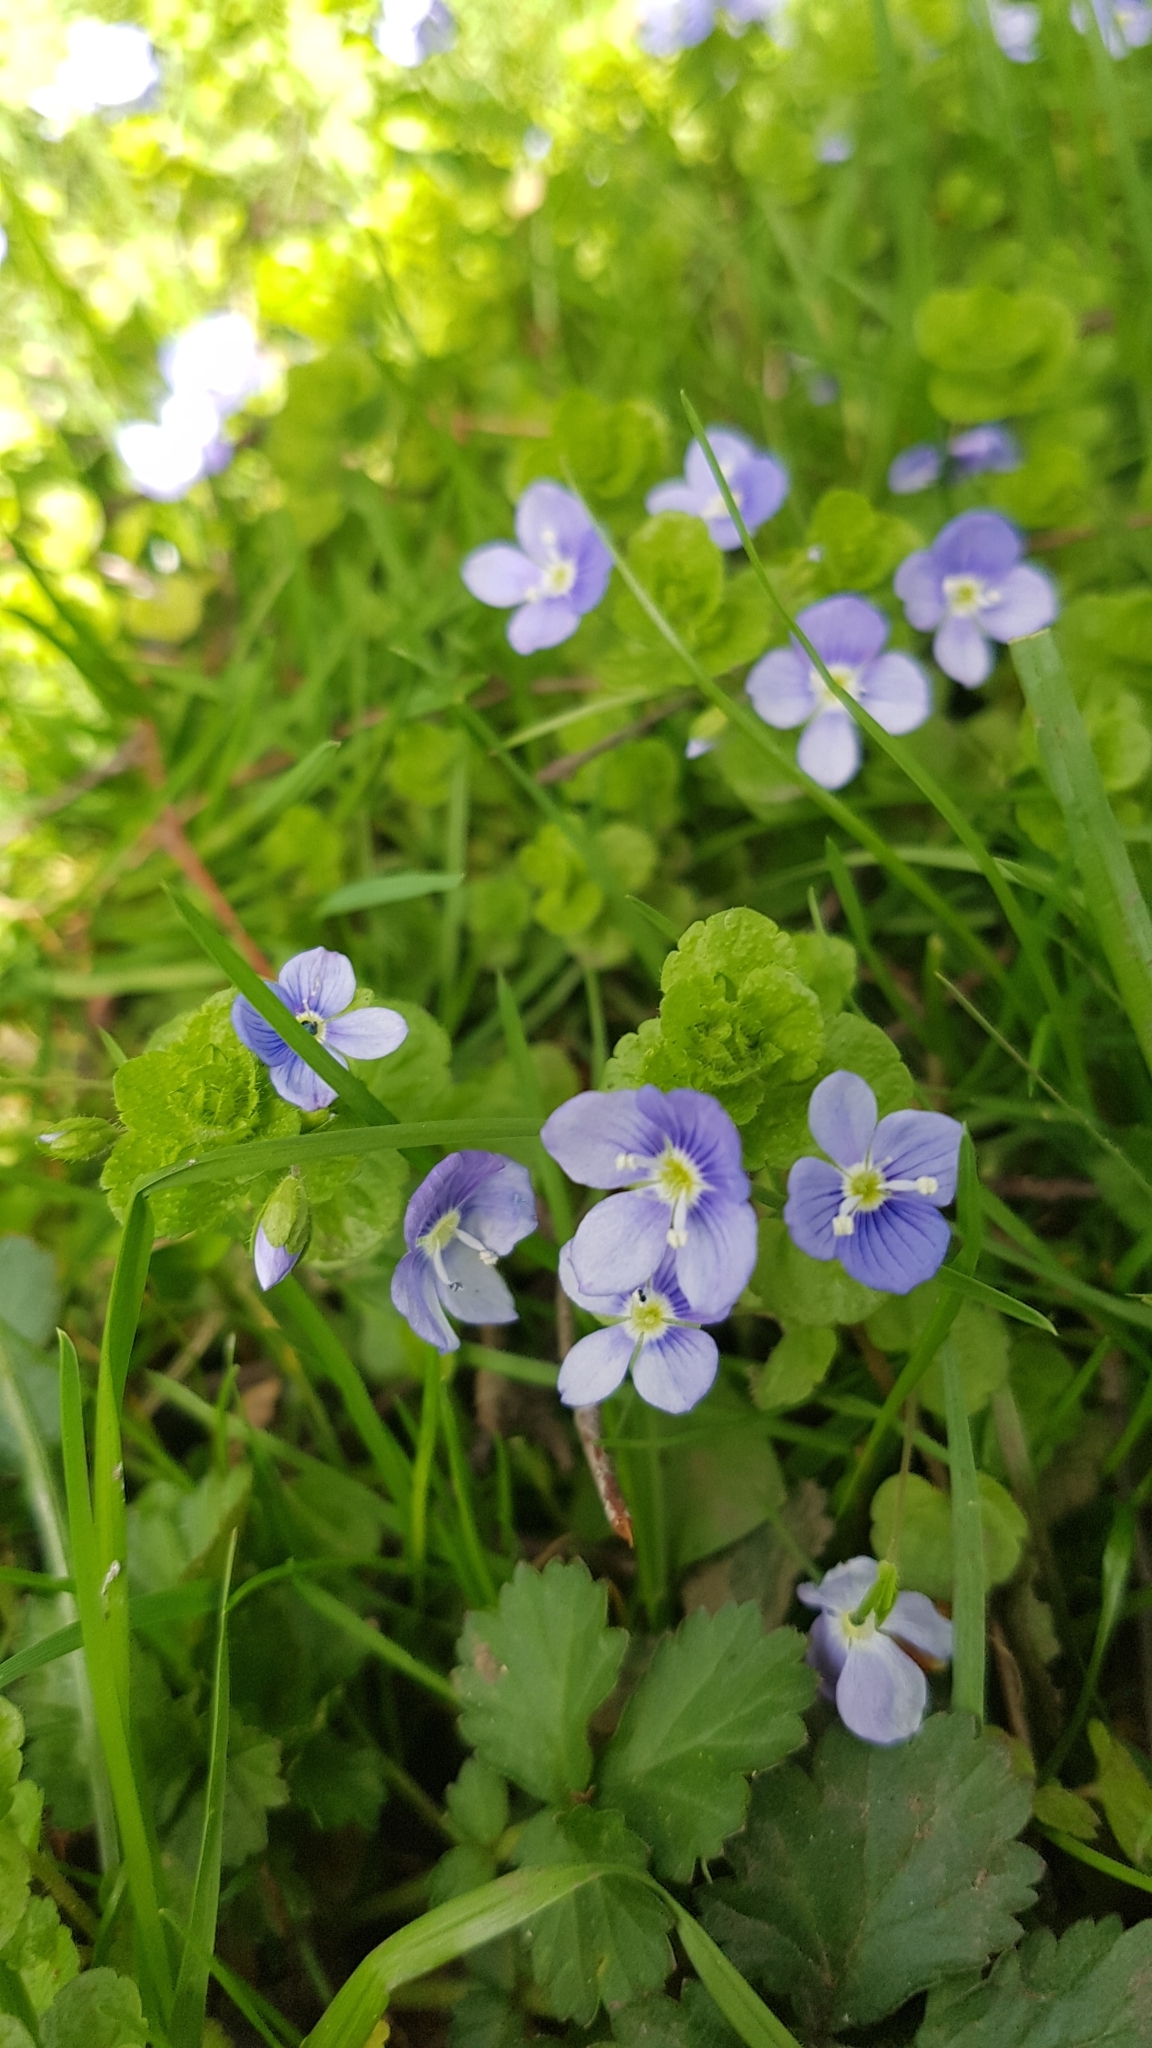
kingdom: Plantae
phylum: Tracheophyta
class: Magnoliopsida
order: Lamiales
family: Plantaginaceae
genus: Veronica
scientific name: Veronica filiformis
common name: Slender speedwell
